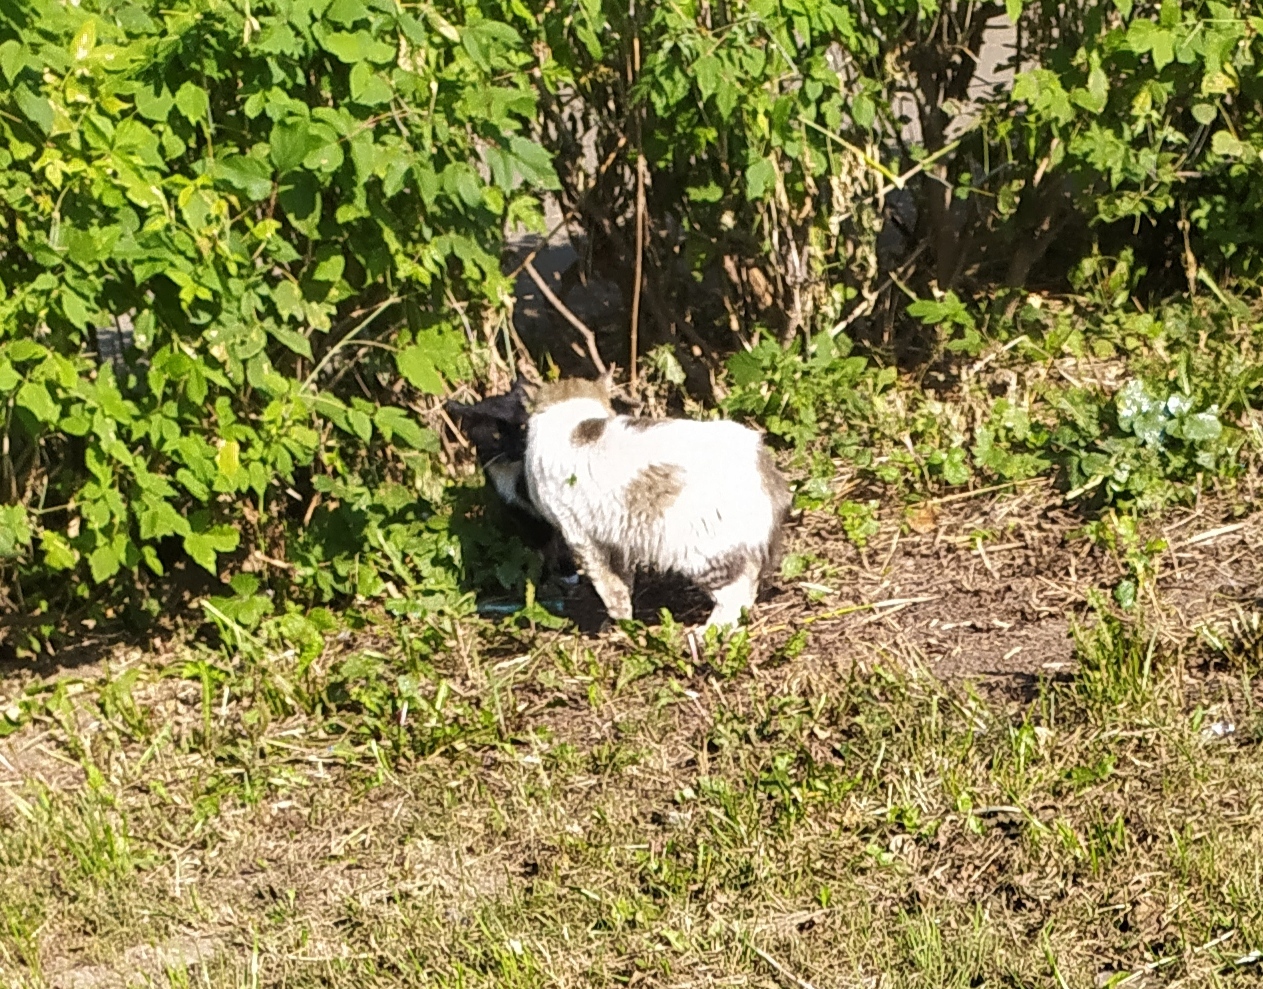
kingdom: Animalia
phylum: Chordata
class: Mammalia
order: Carnivora
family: Felidae
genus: Felis
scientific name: Felis catus
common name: Domestic cat
